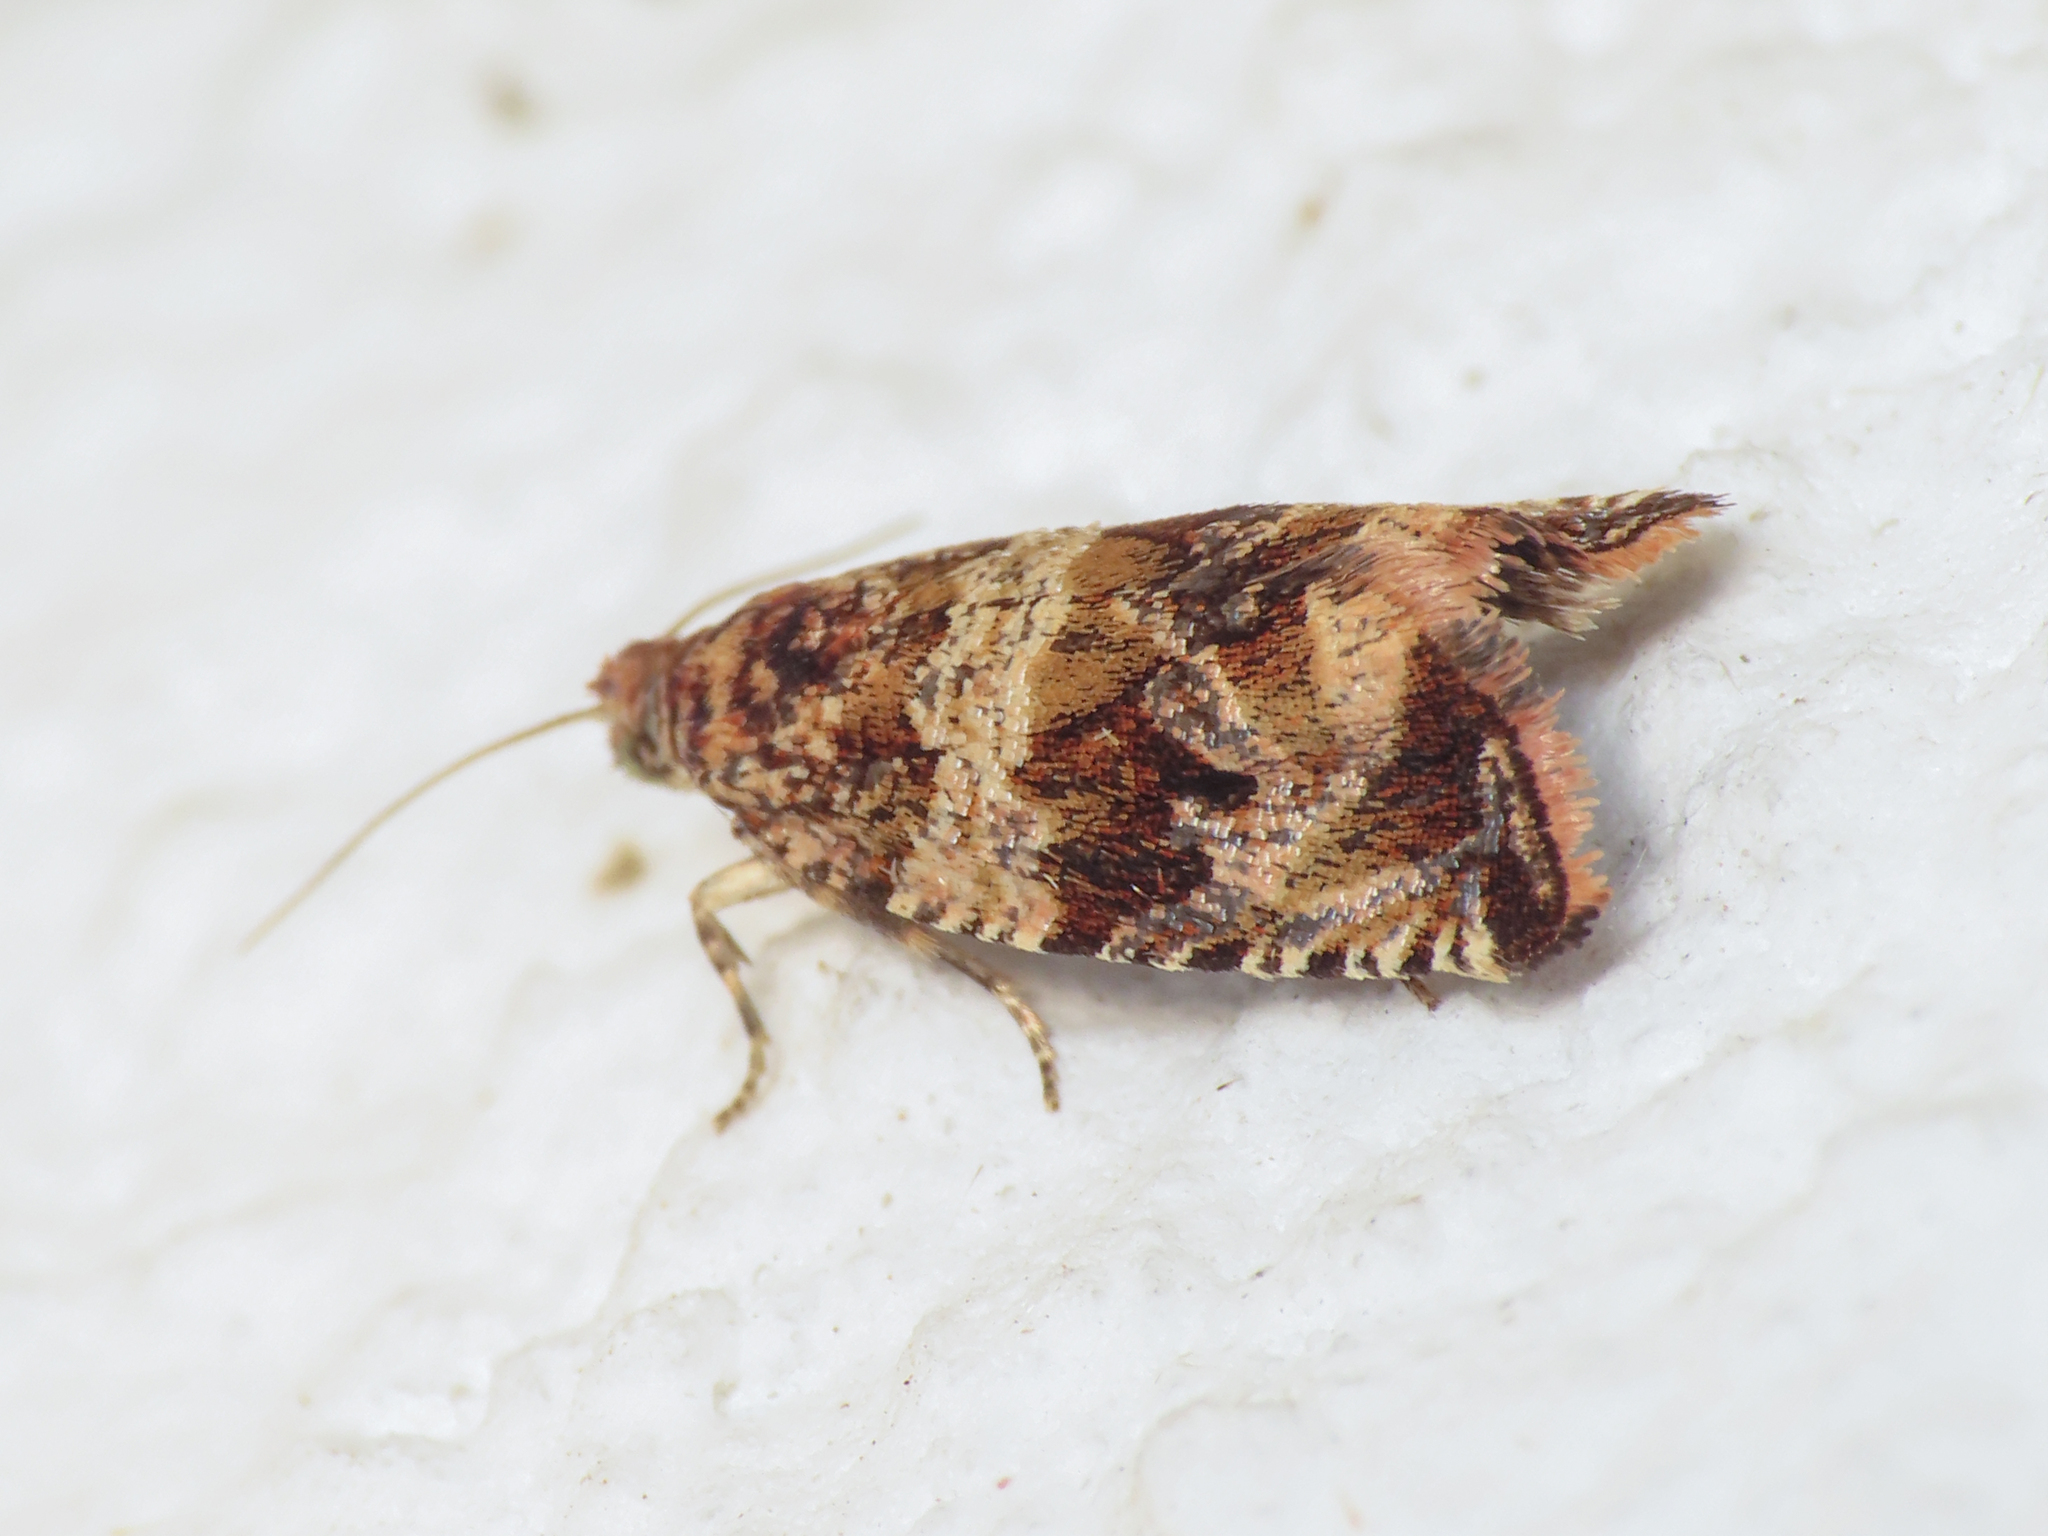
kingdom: Animalia
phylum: Arthropoda
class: Insecta
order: Lepidoptera
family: Tortricidae
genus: Celypha
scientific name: Celypha flavipalpana
